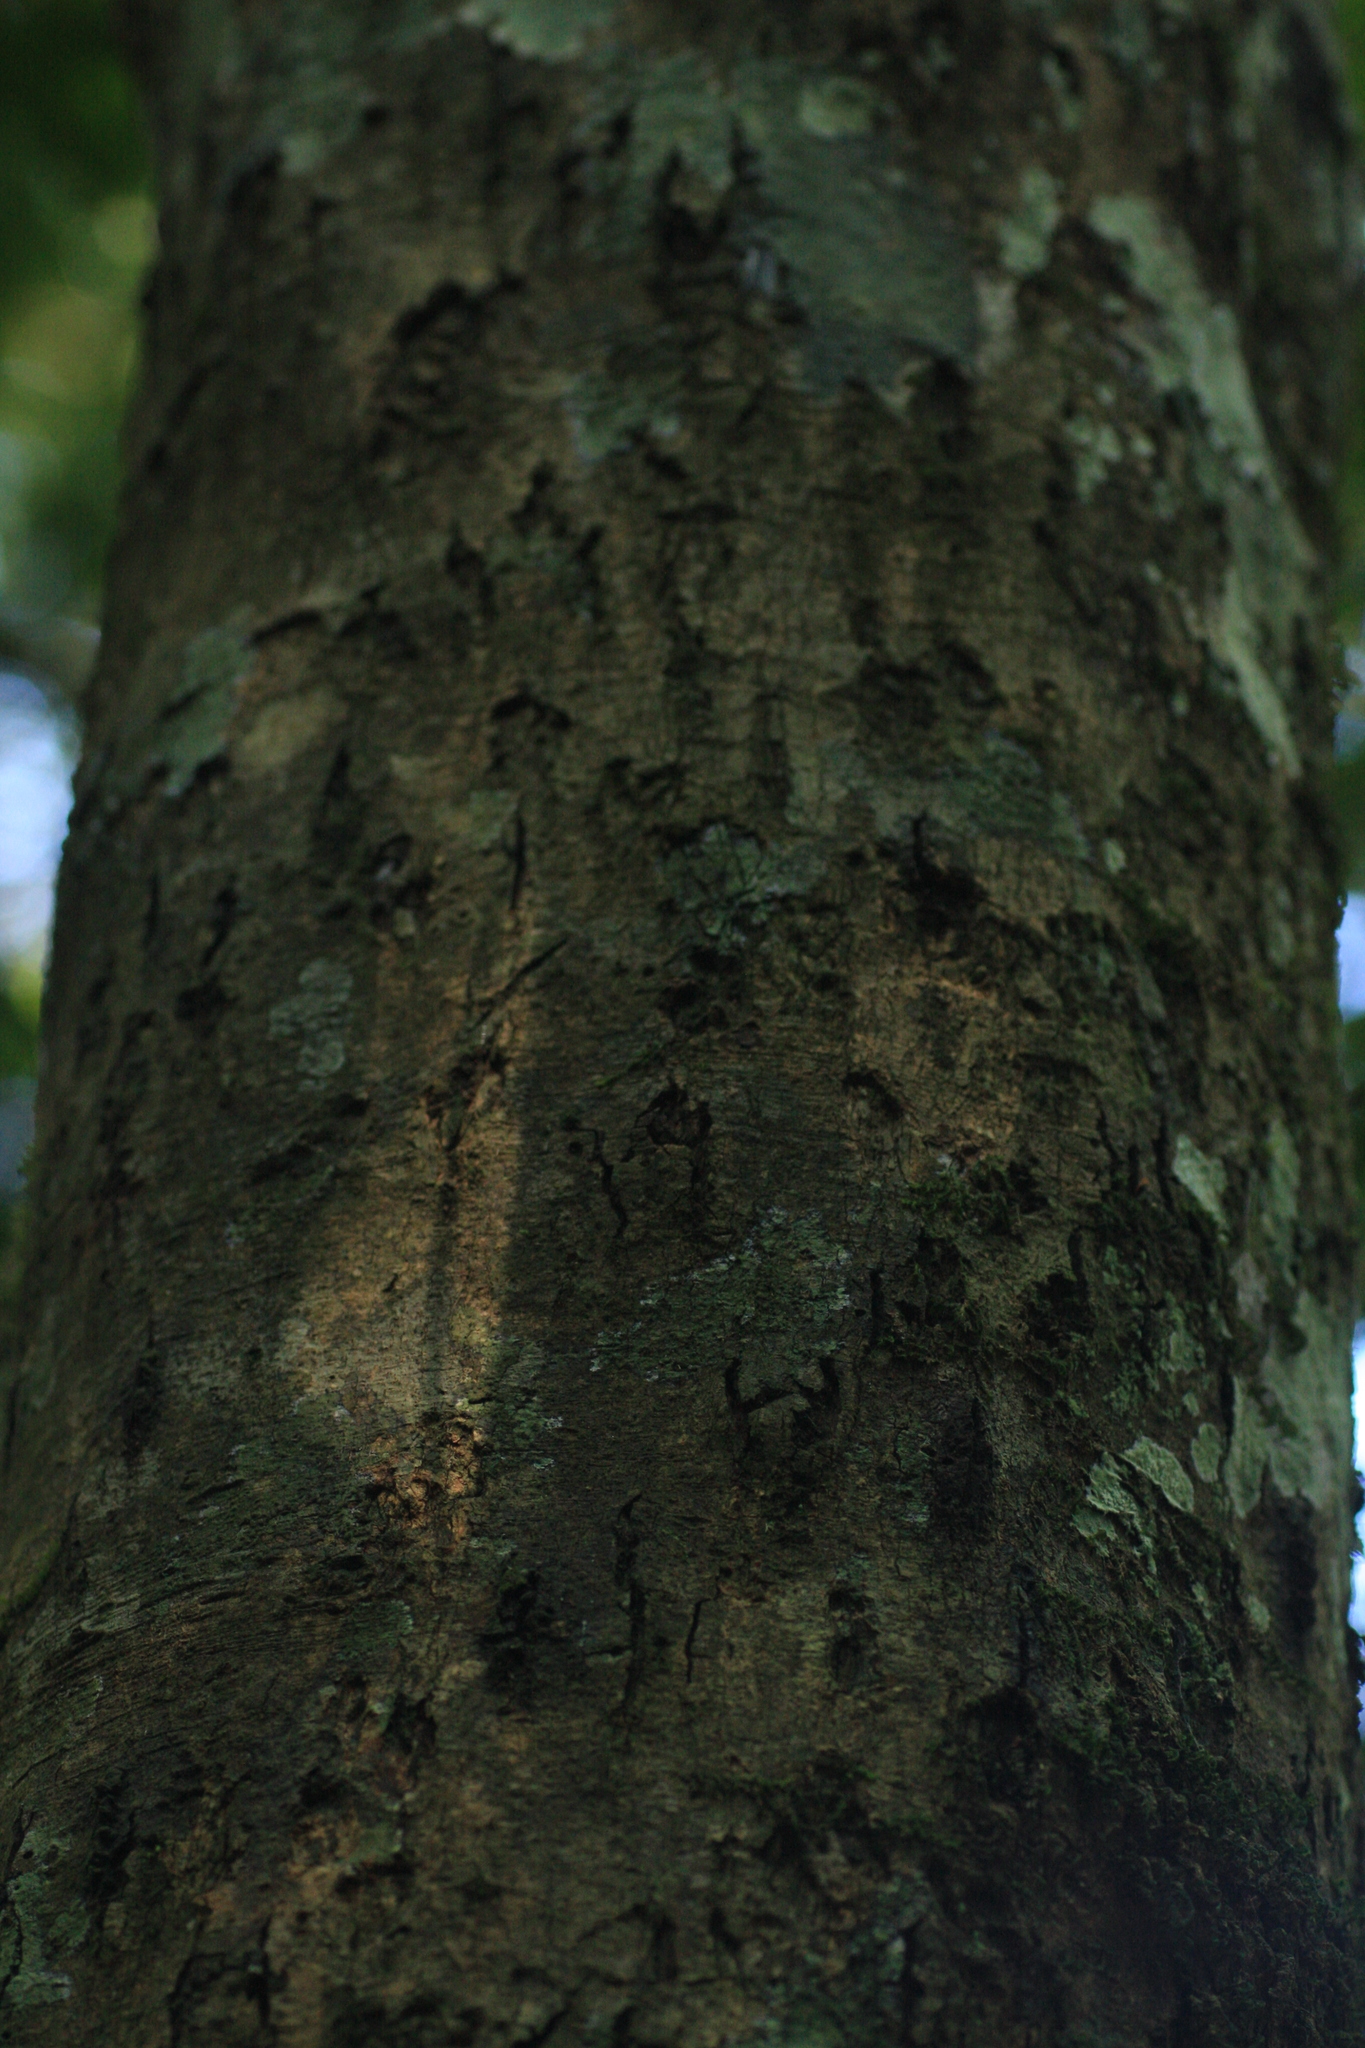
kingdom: Plantae
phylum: Tracheophyta
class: Magnoliopsida
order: Sapindales
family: Anacardiaceae
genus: Nothopegia
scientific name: Nothopegia beddomei
